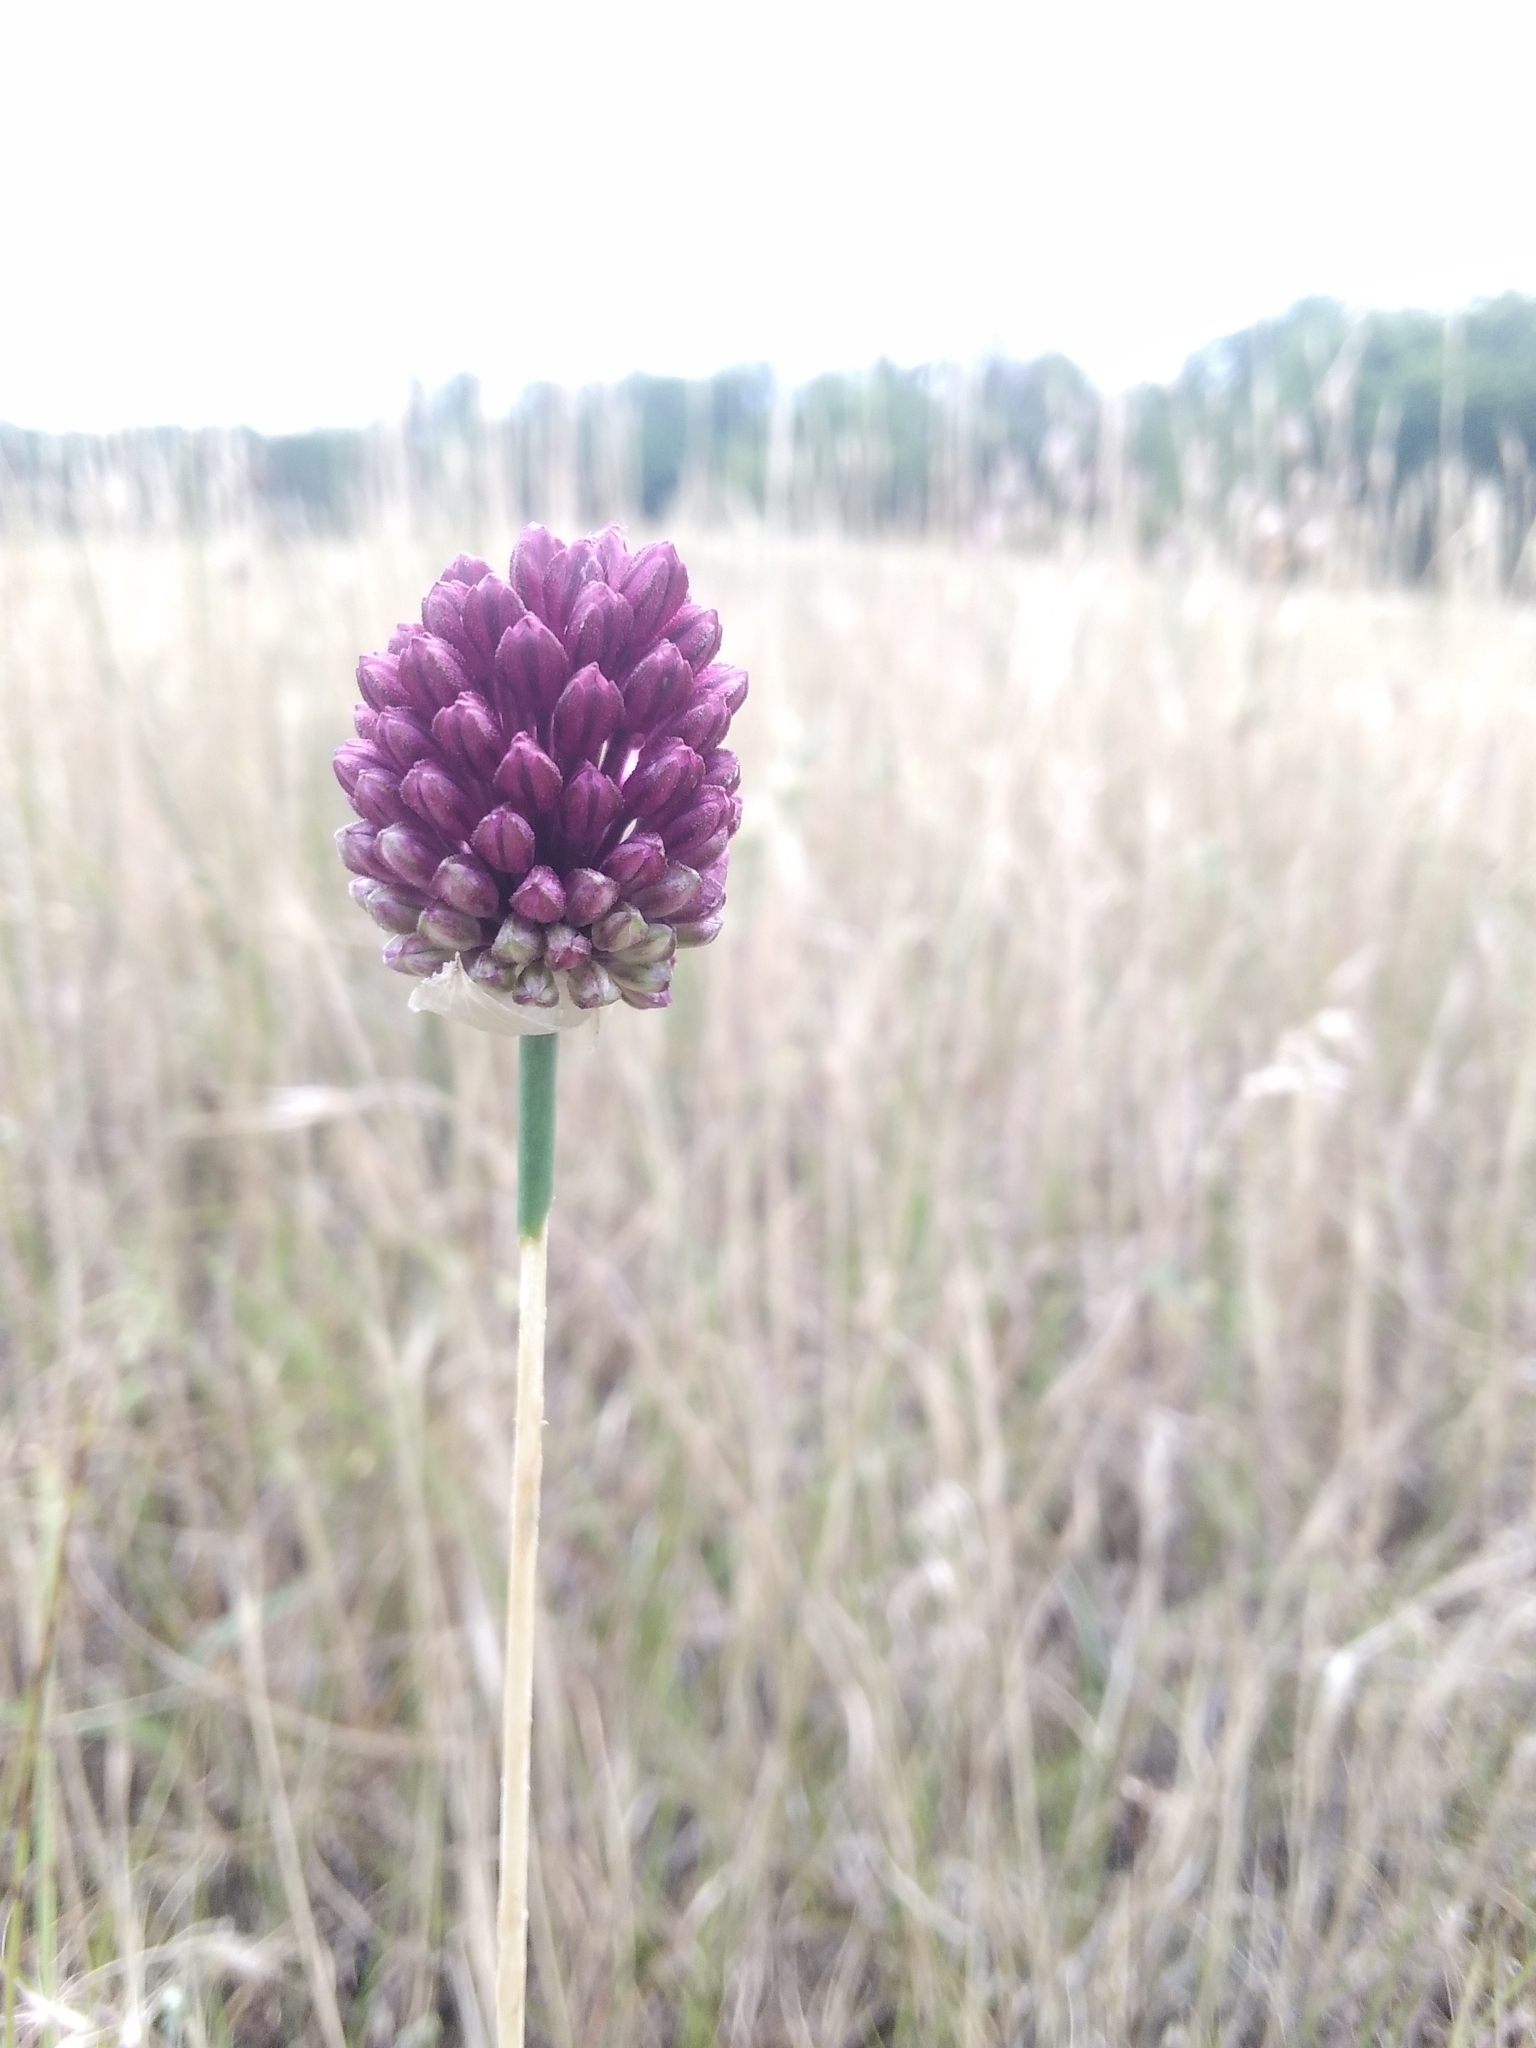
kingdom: Plantae
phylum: Tracheophyta
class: Liliopsida
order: Asparagales
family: Amaryllidaceae
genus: Allium
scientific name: Allium sphaerocephalon
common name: Round-headed leek
